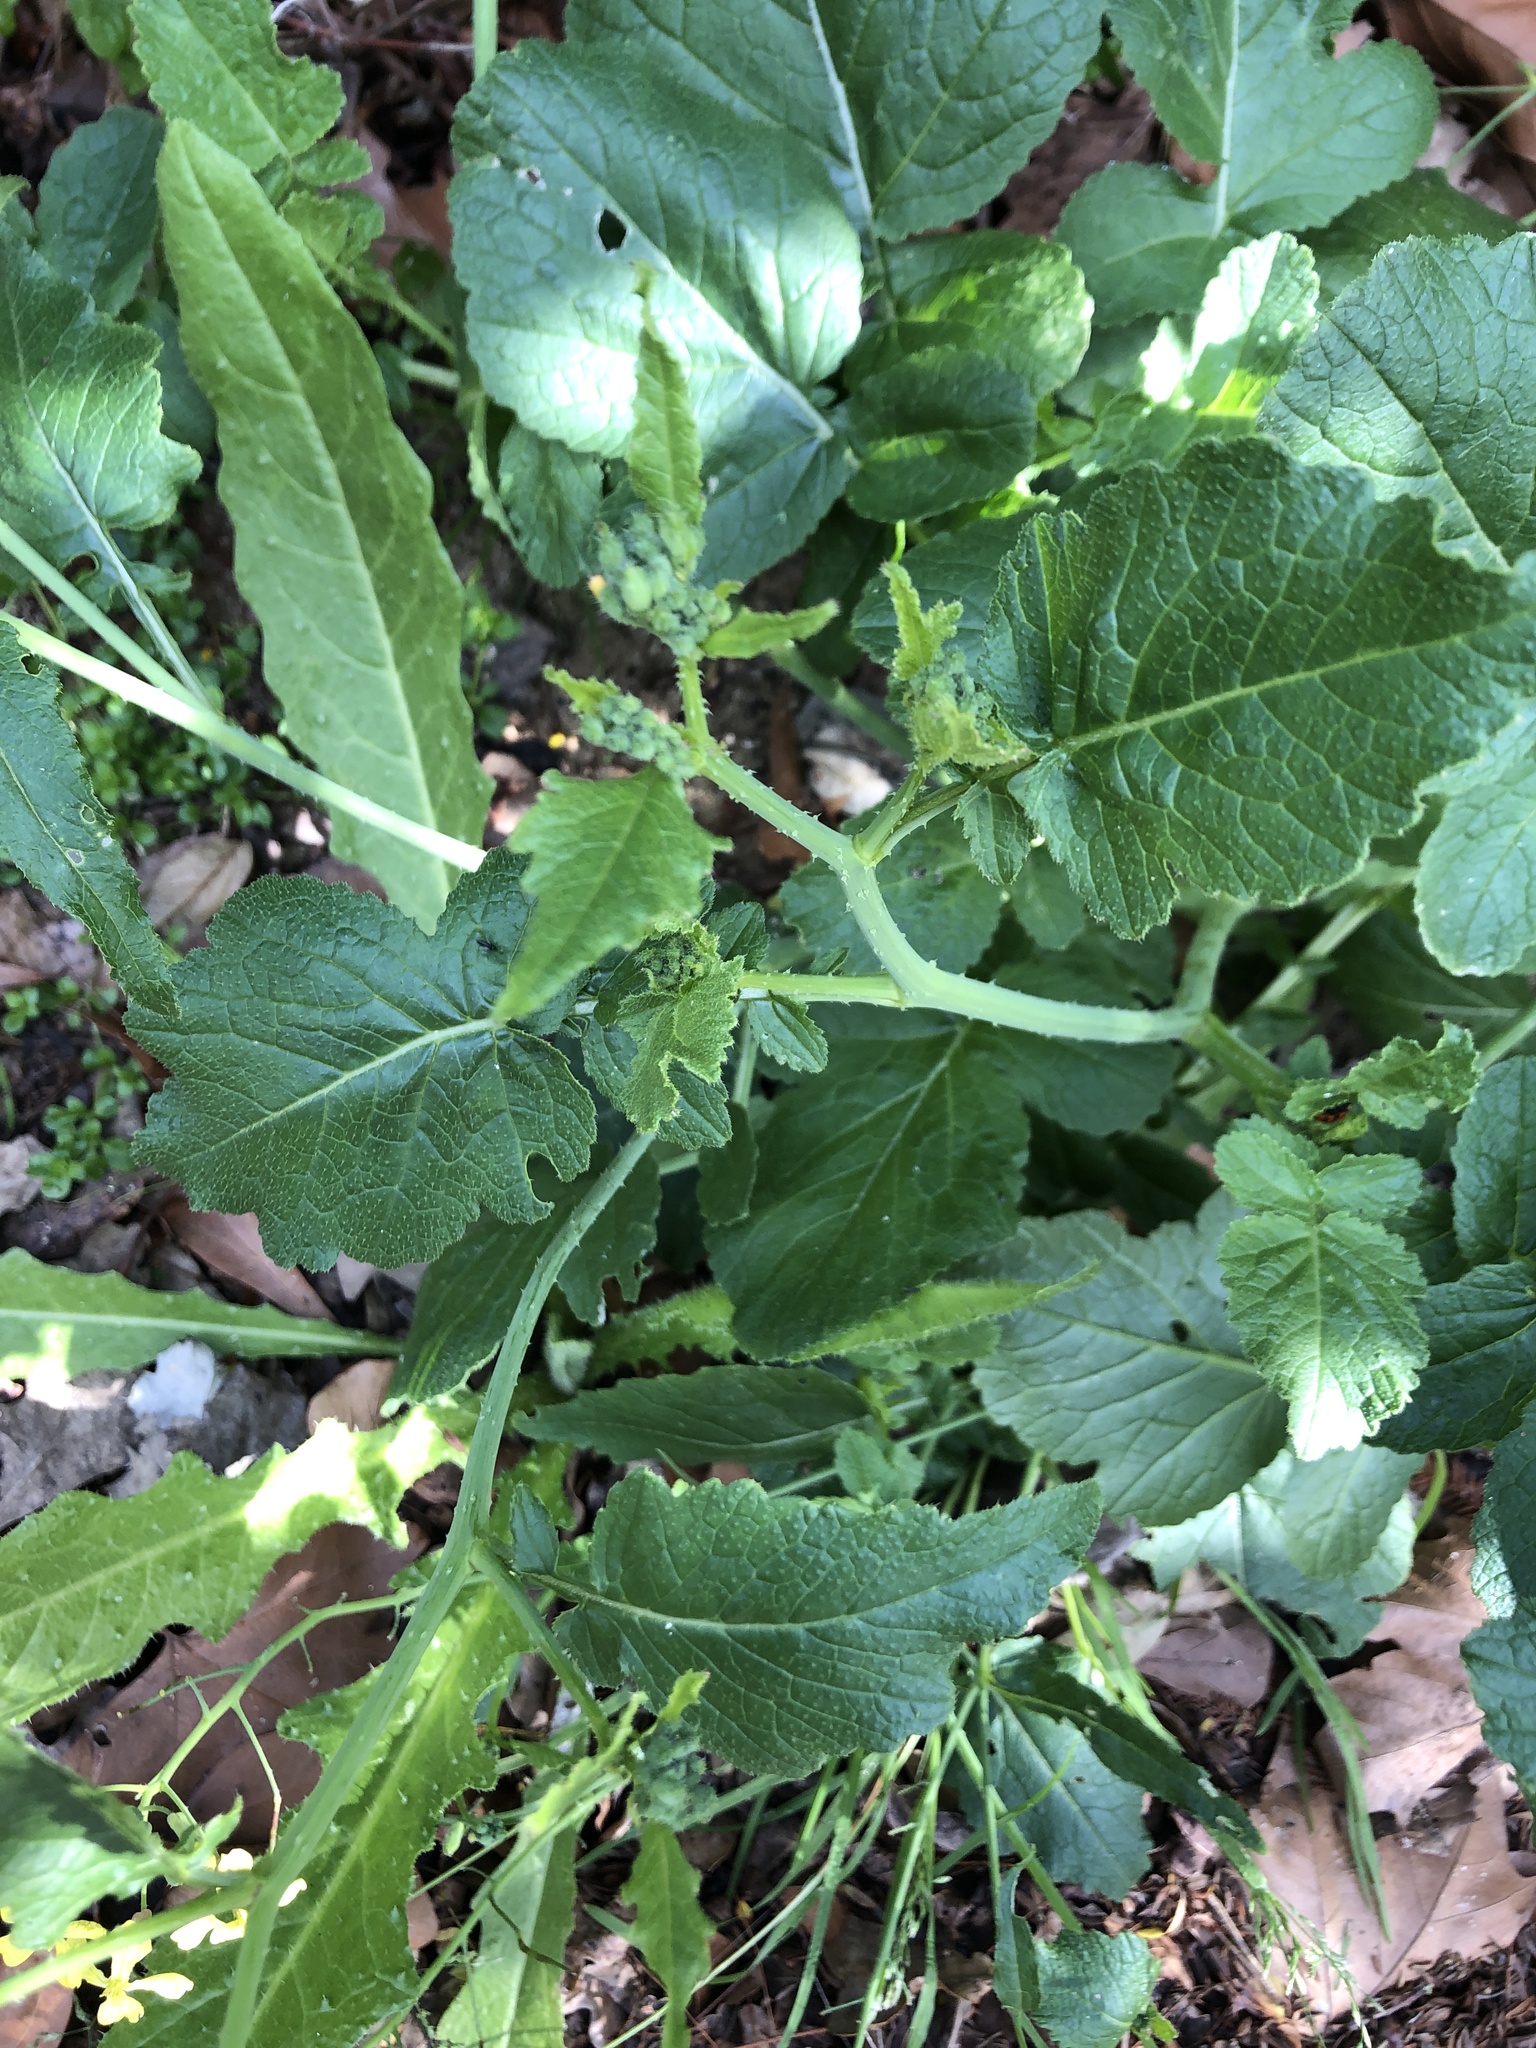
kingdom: Plantae
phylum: Tracheophyta
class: Magnoliopsida
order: Brassicales
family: Brassicaceae
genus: Raphanus
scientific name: Raphanus raphanistrum
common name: Wild radish
